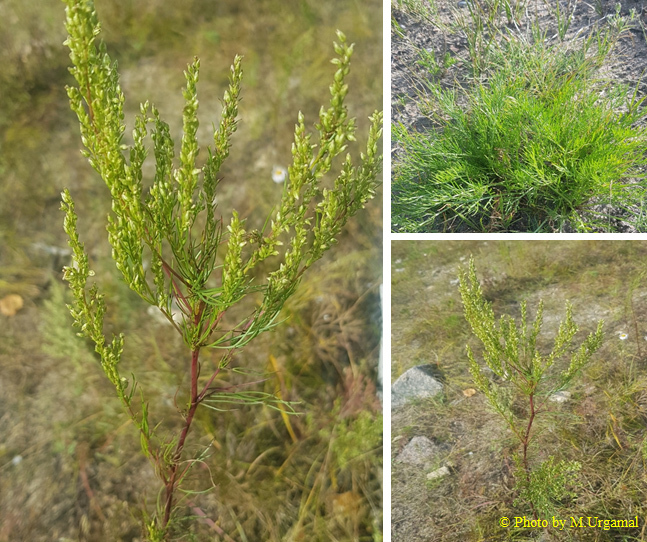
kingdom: Plantae
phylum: Tracheophyta
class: Magnoliopsida
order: Asterales
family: Asteraceae
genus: Artemisia
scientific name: Artemisia pubescens
